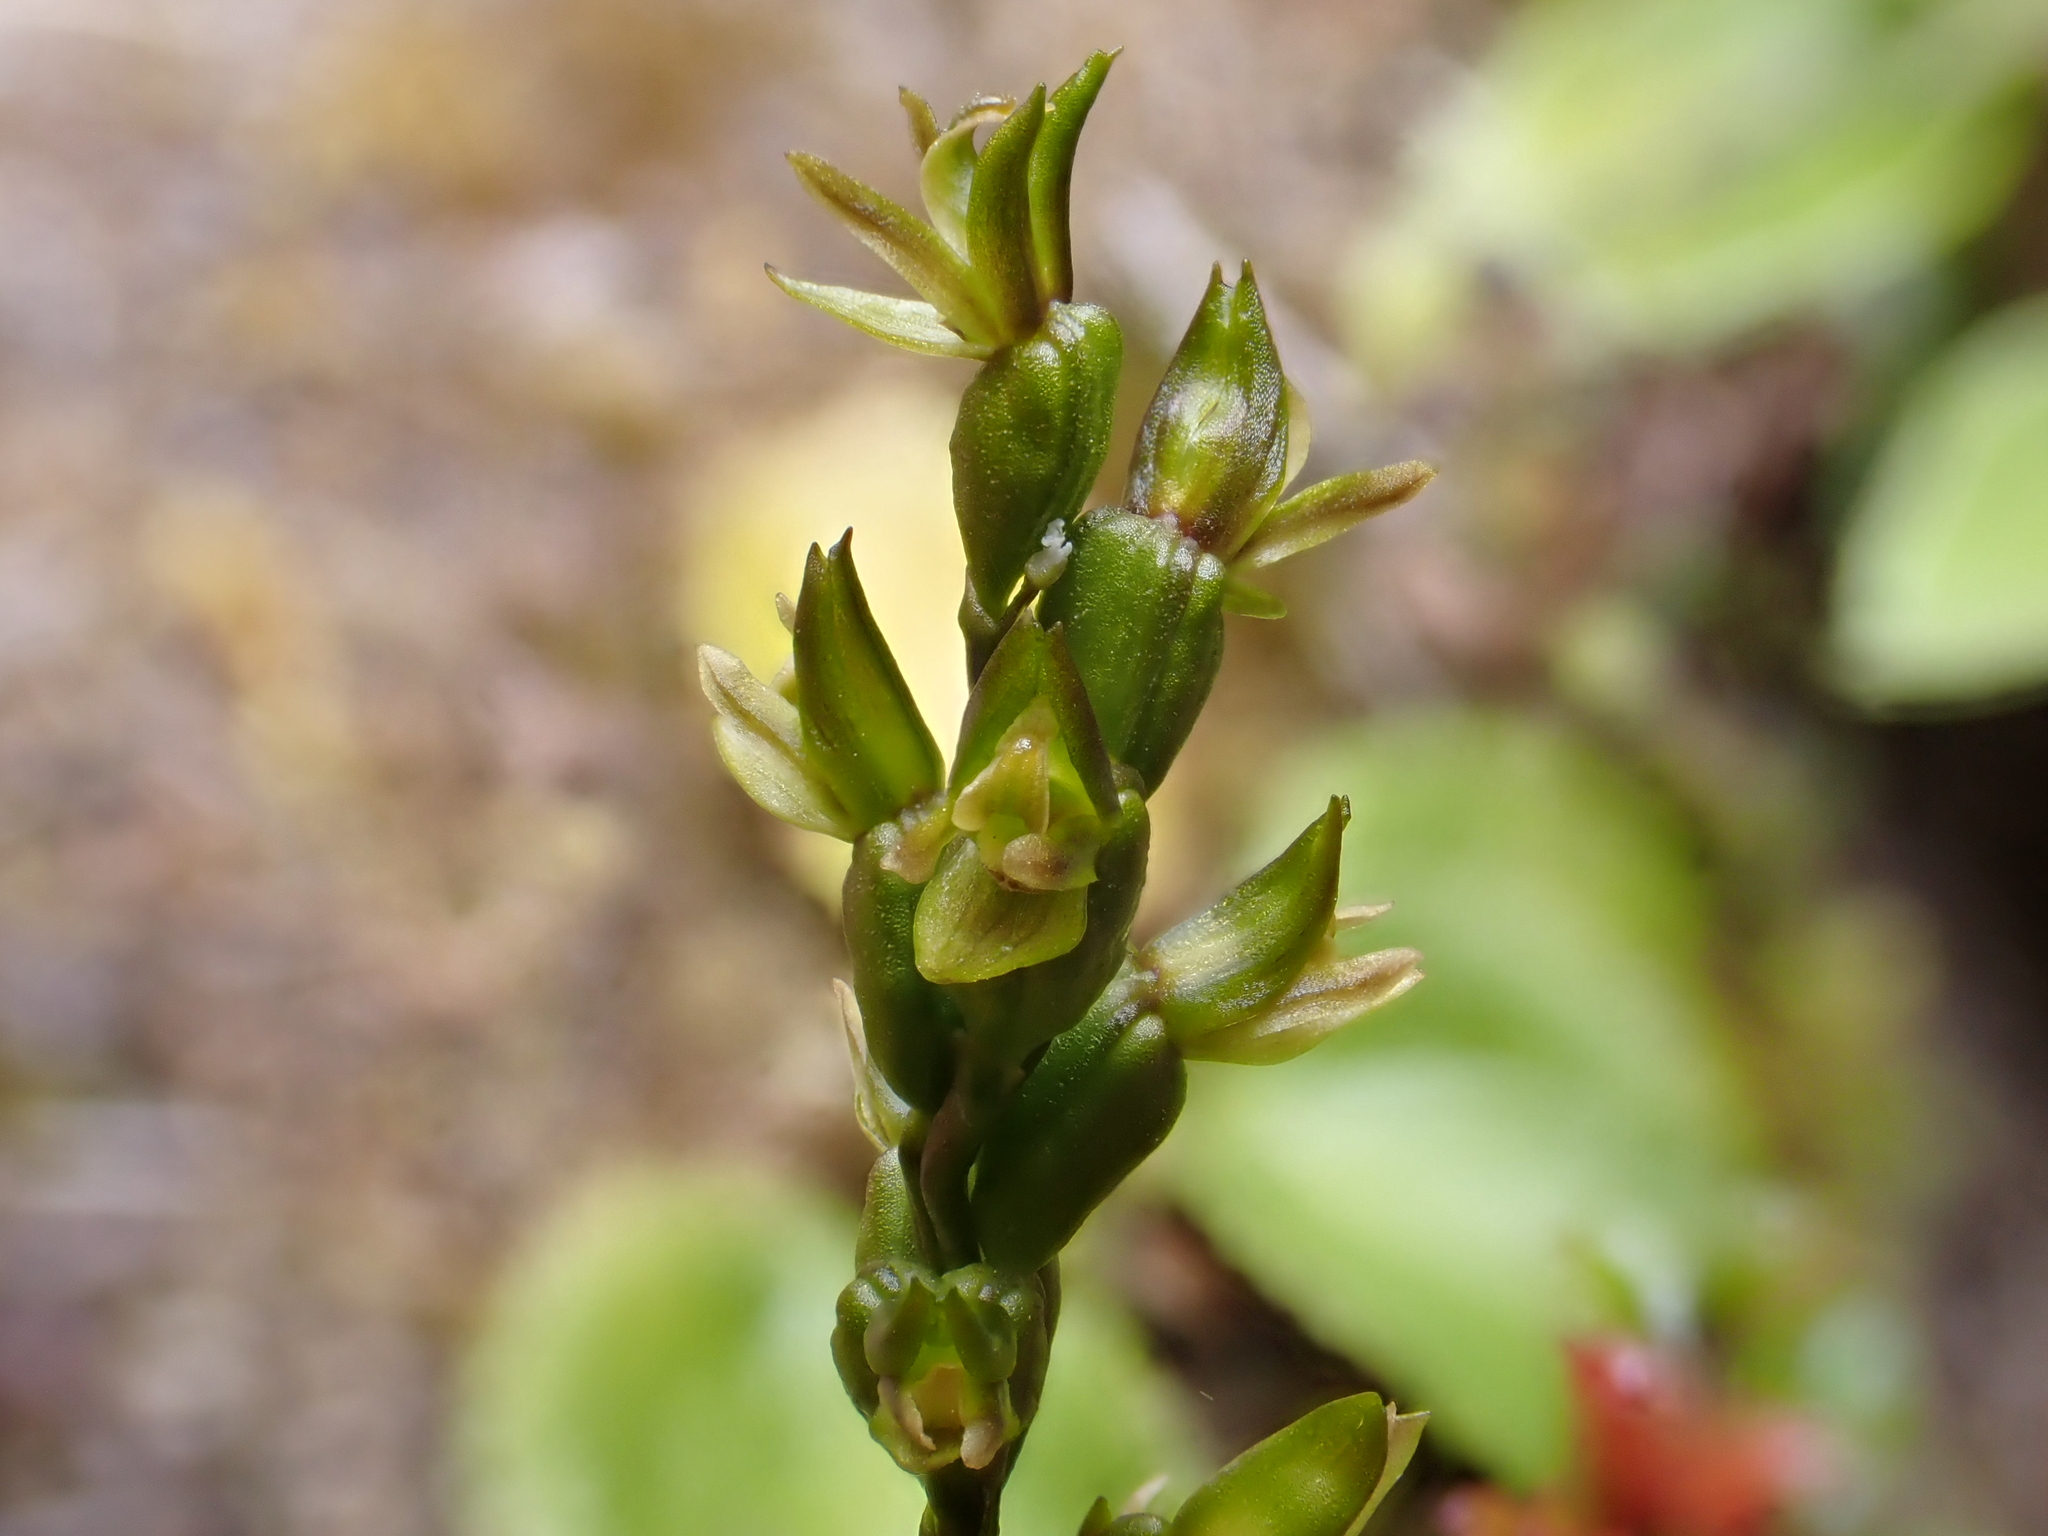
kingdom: Plantae
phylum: Tracheophyta
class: Liliopsida
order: Asparagales
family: Orchidaceae
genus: Prasophyllum
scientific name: Prasophyllum colensoi
